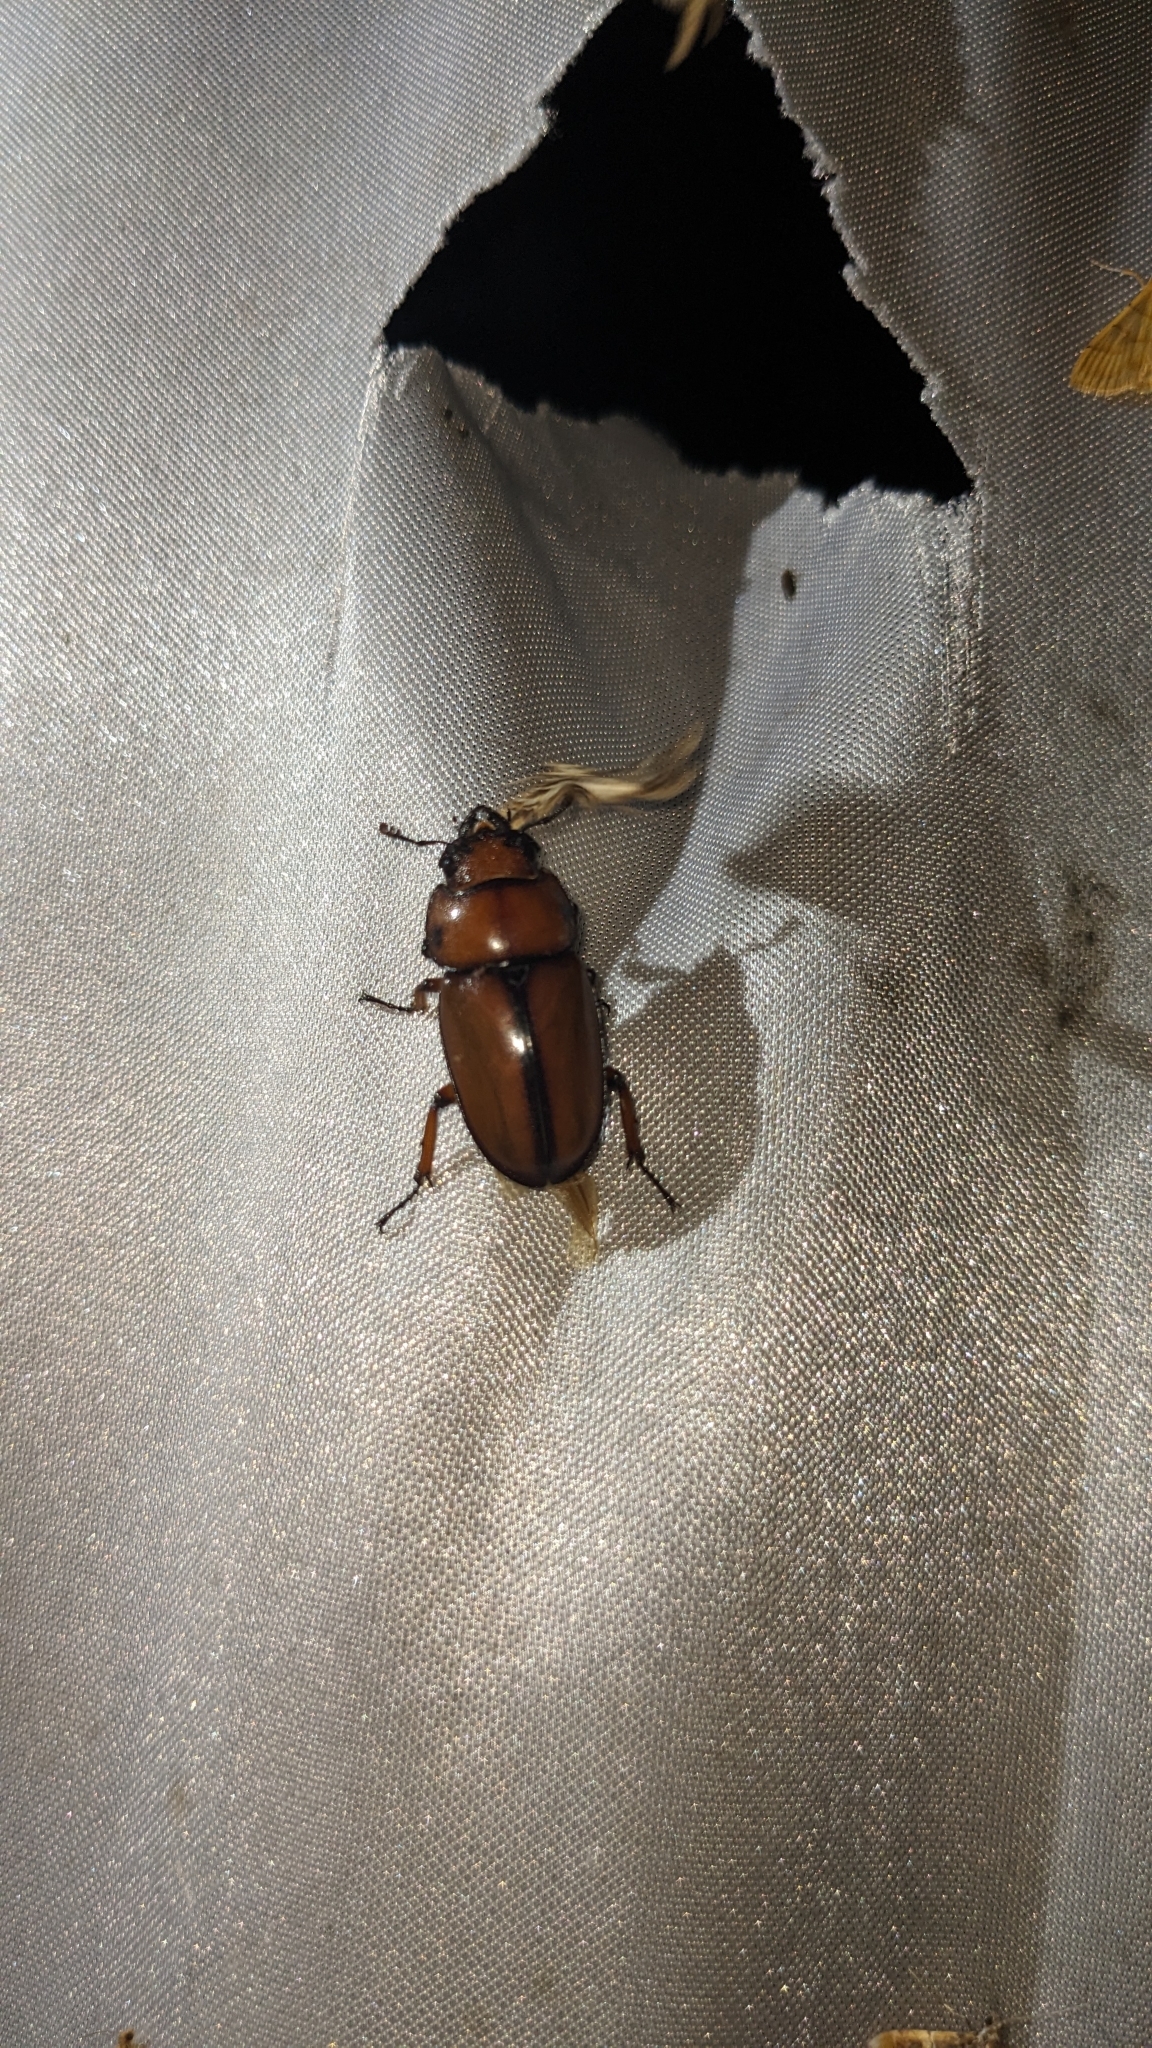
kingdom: Animalia
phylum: Arthropoda
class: Insecta
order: Coleoptera
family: Lucanidae
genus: Prosopocoilus
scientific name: Prosopocoilus astacoides
